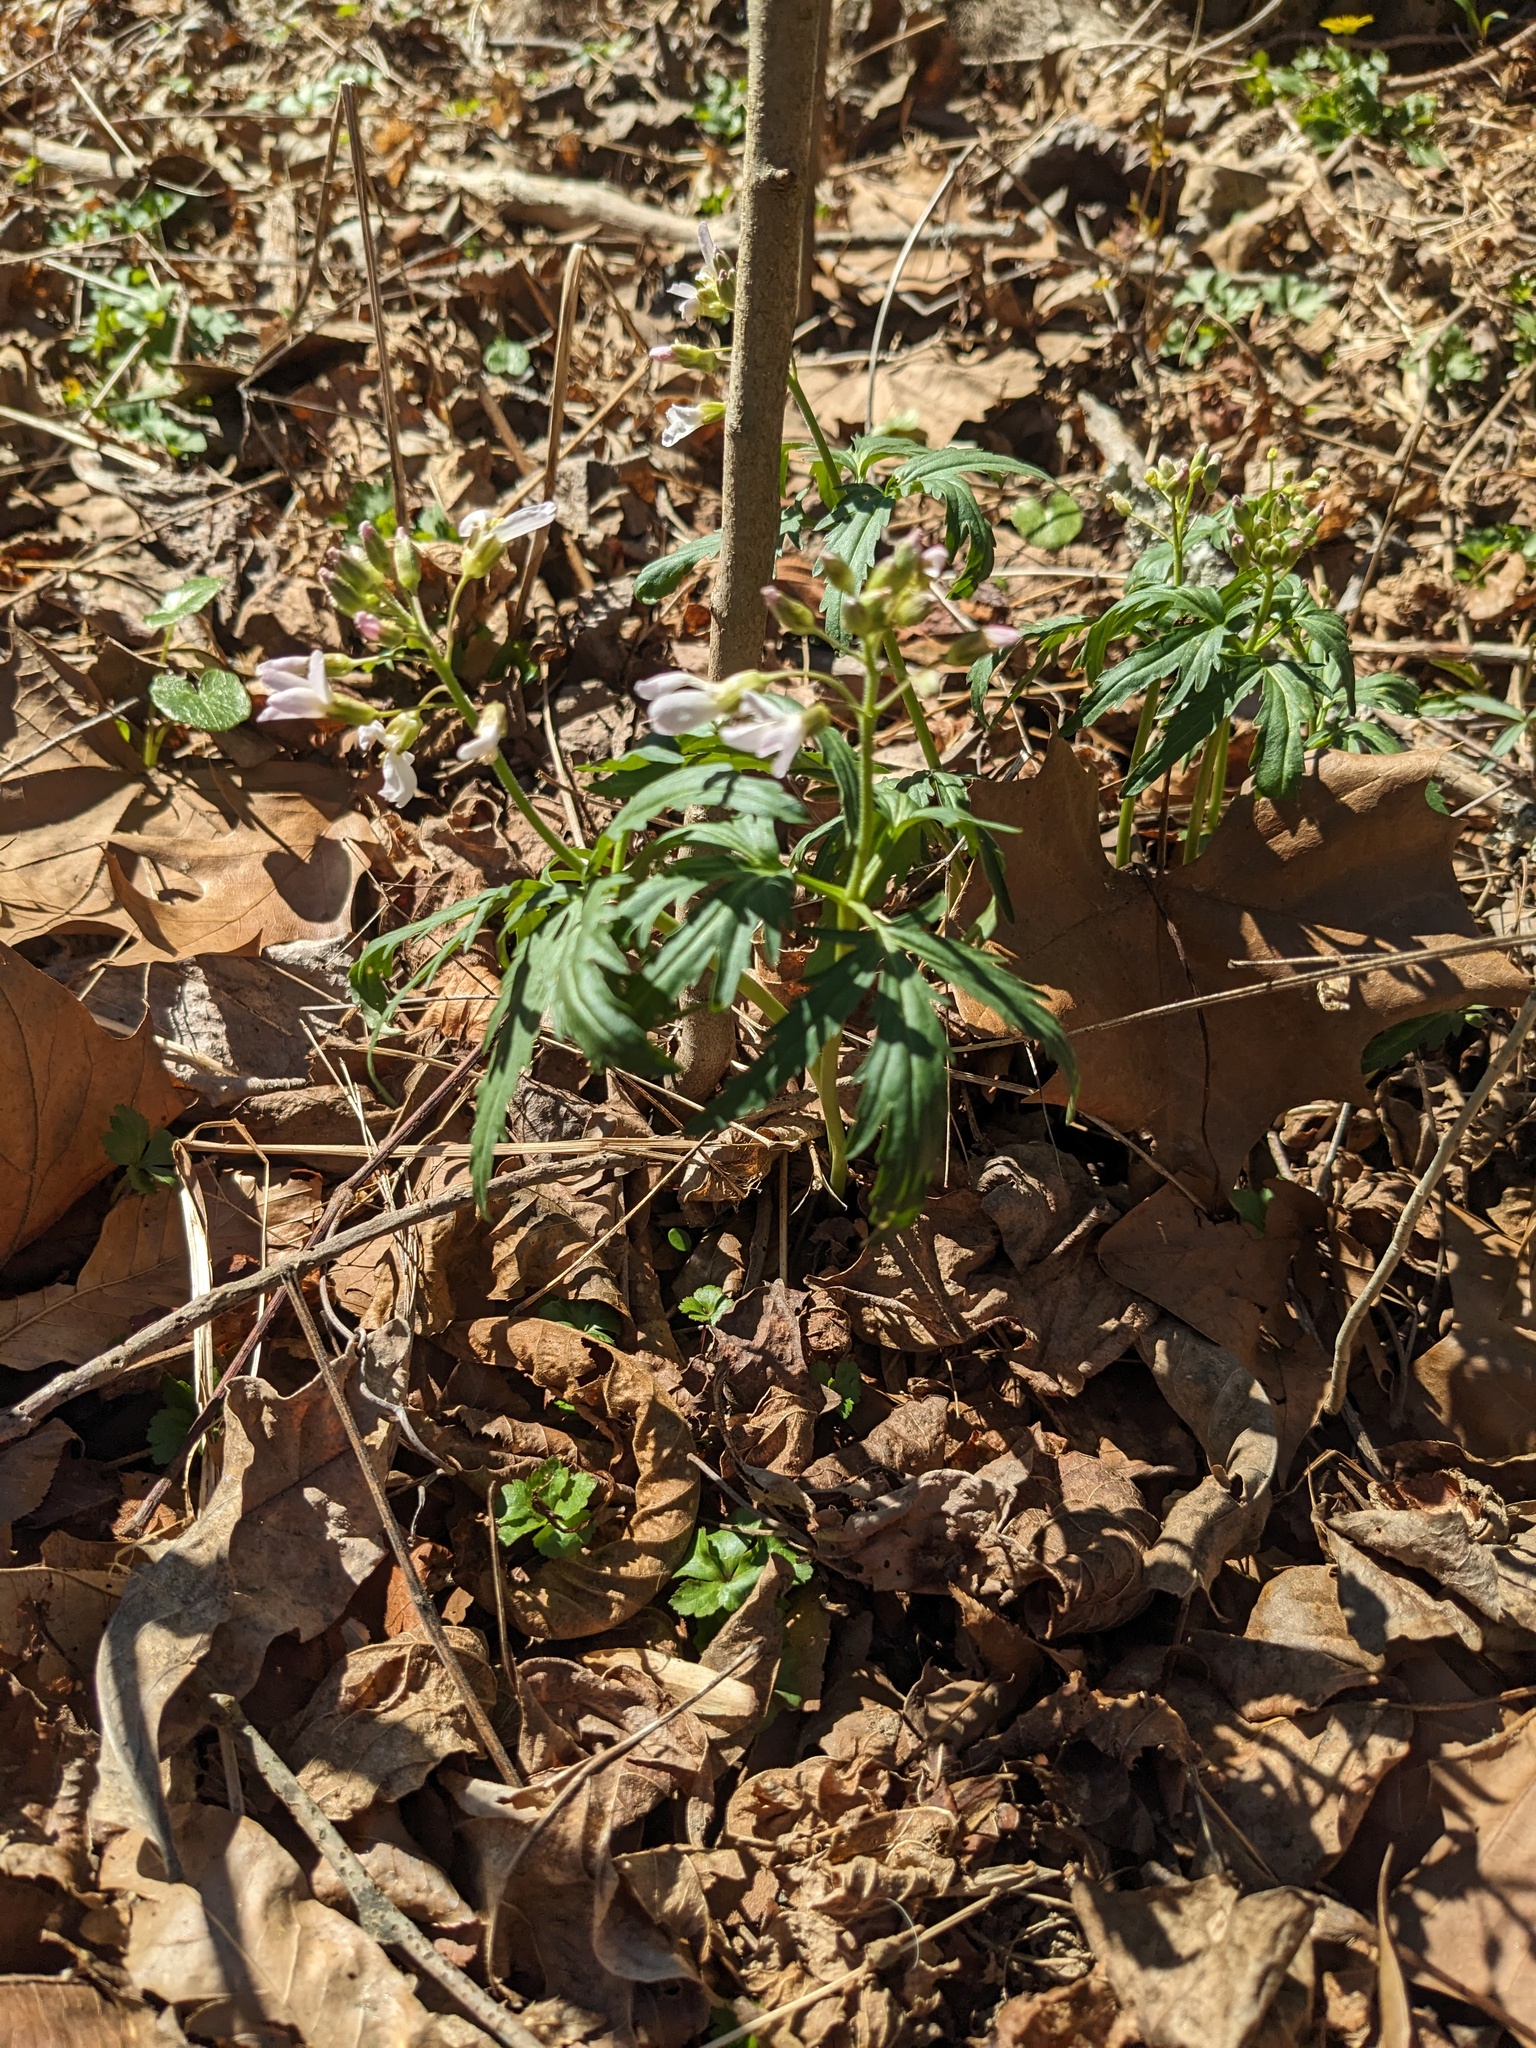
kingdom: Plantae
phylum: Tracheophyta
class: Magnoliopsida
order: Brassicales
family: Brassicaceae
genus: Cardamine
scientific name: Cardamine concatenata
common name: Cut-leaf toothcup
